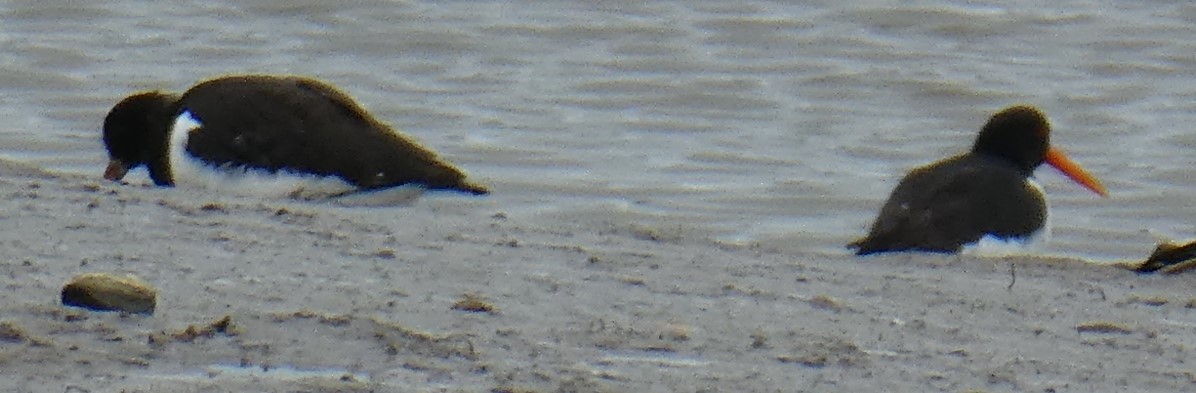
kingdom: Animalia
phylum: Chordata
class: Aves
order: Charadriiformes
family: Haematopodidae
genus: Haematopus
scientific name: Haematopus ostralegus
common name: Eurasian oystercatcher
